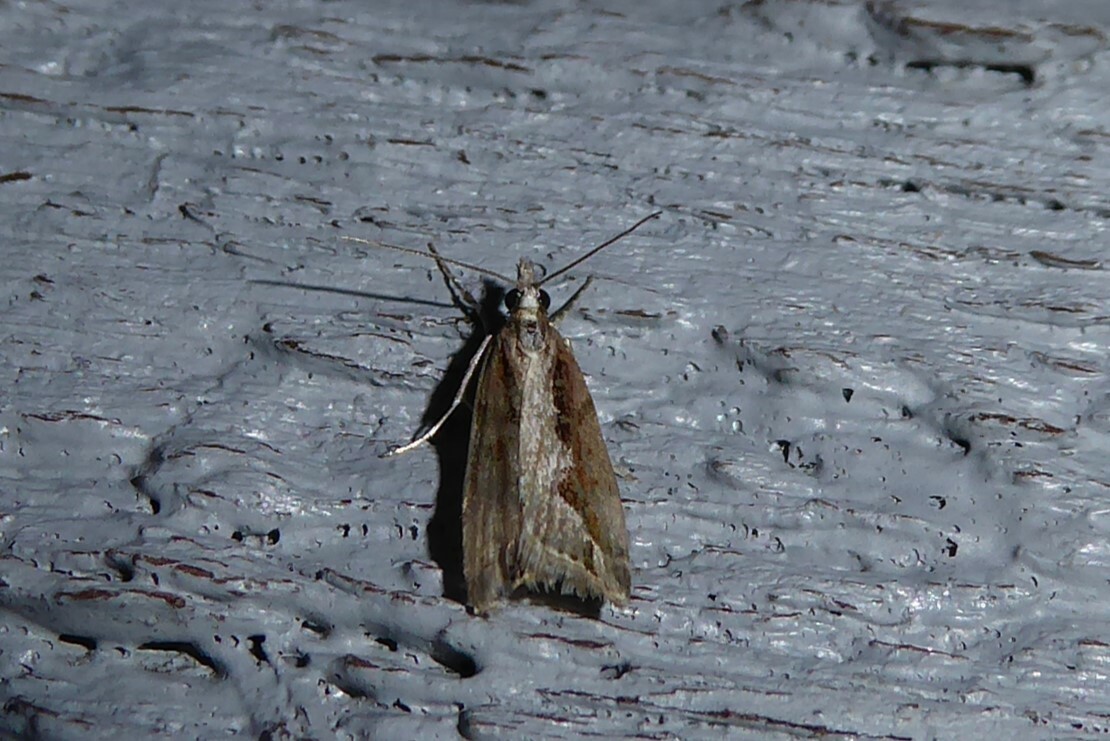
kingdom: Animalia
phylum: Arthropoda
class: Insecta
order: Lepidoptera
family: Crambidae
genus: Eudonia
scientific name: Eudonia steropaea
